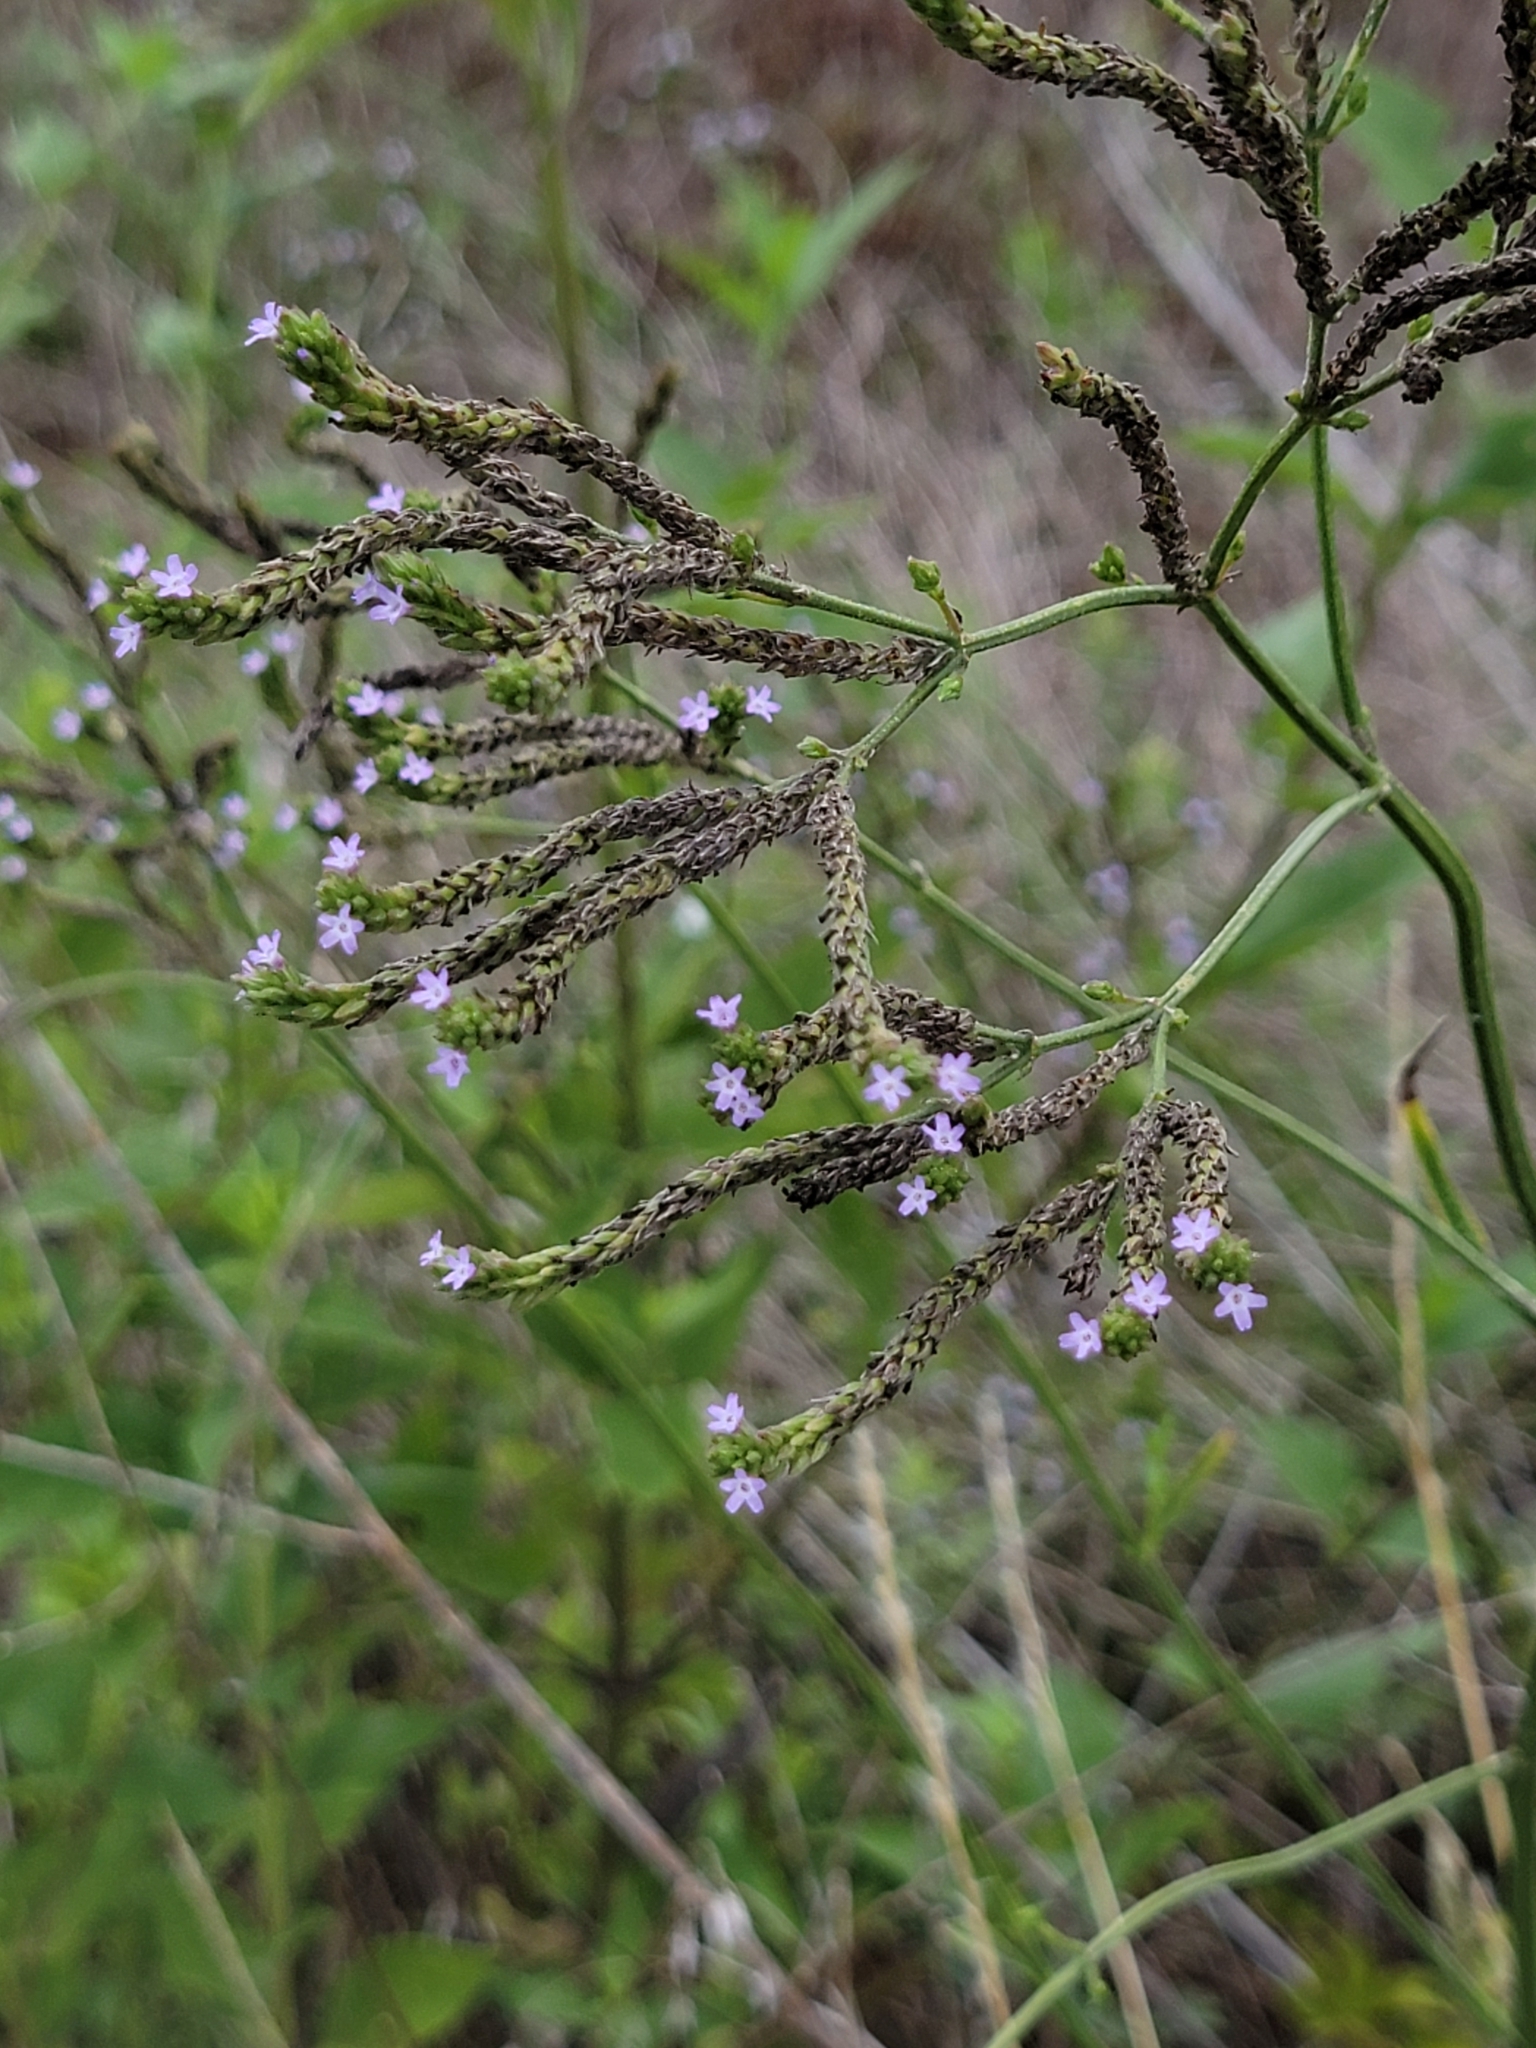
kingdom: Plantae
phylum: Tracheophyta
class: Magnoliopsida
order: Lamiales
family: Verbenaceae
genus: Verbena
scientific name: Verbena brasiliensis
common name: Brazilian vervain
